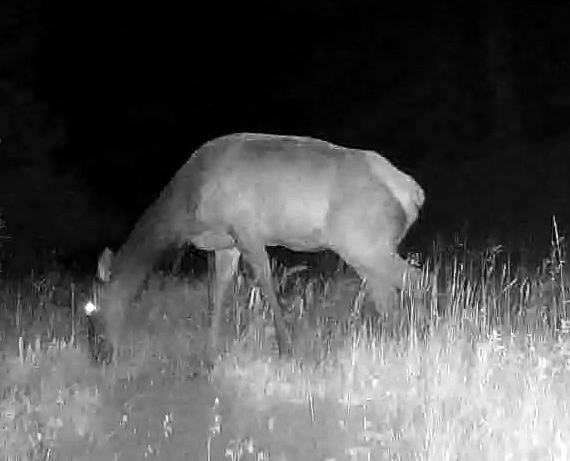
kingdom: Animalia
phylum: Chordata
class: Mammalia
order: Artiodactyla
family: Cervidae
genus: Cervus
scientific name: Cervus elaphus
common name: Red deer
